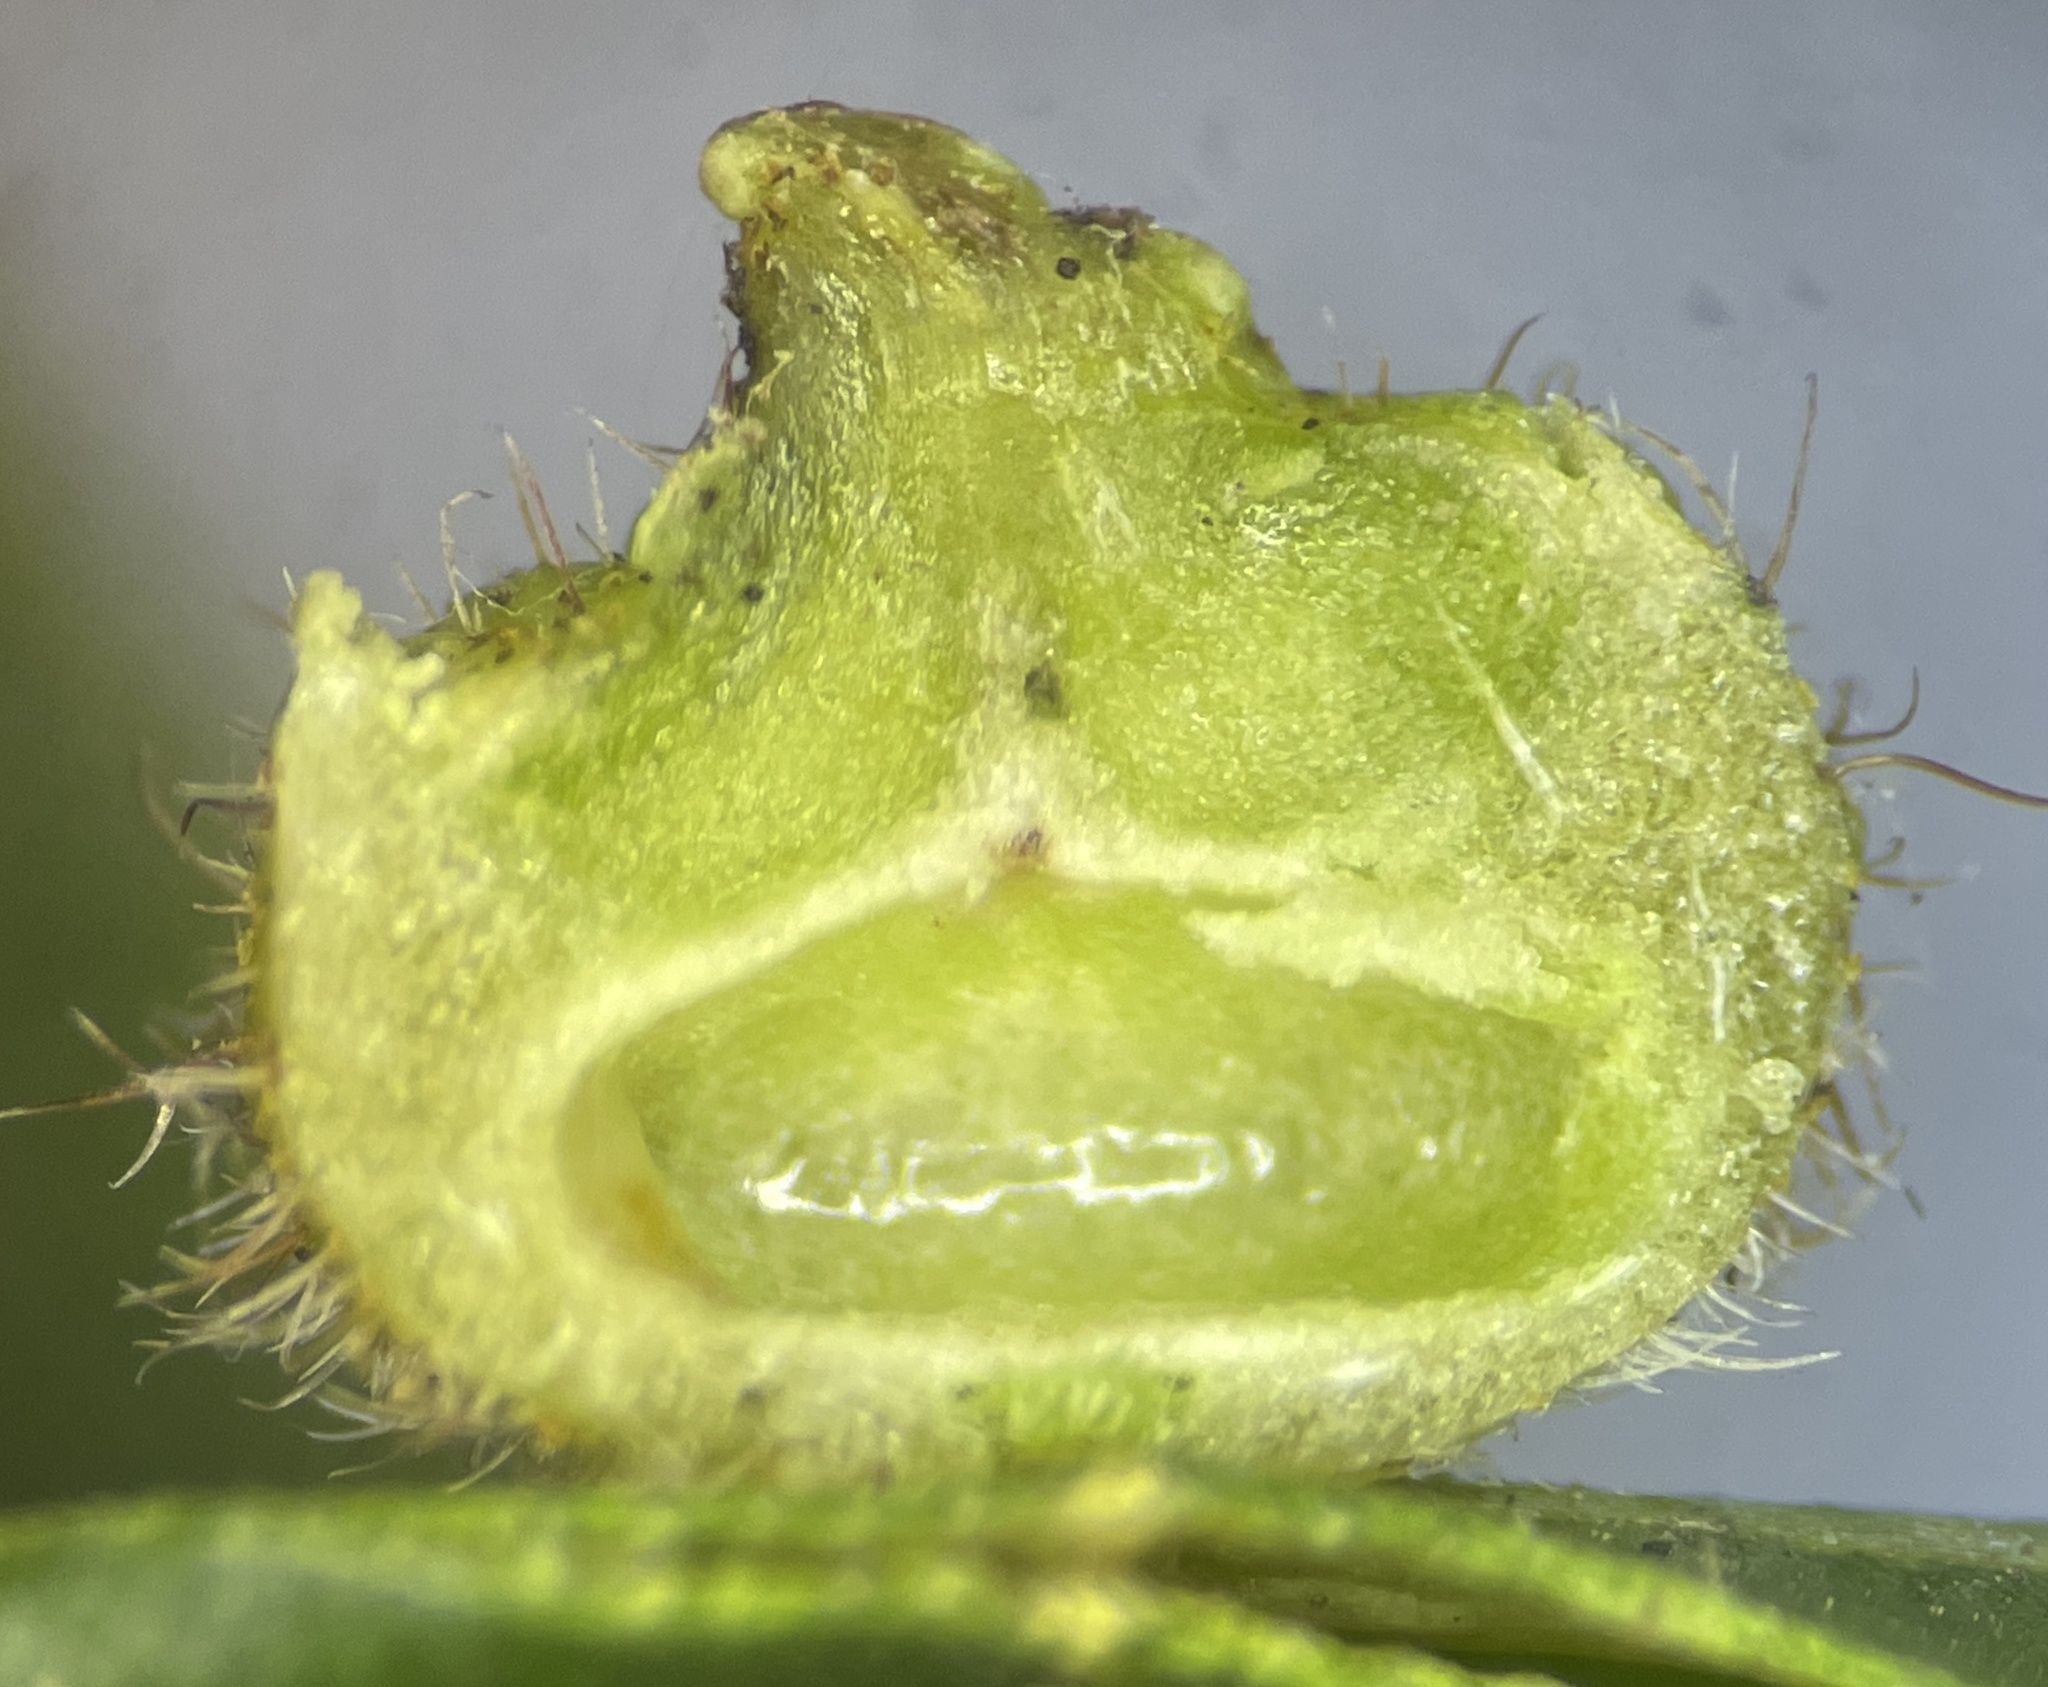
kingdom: Animalia
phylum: Arthropoda
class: Insecta
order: Diptera
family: Cecidomyiidae
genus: Caryomyia
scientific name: Caryomyia turbanella
